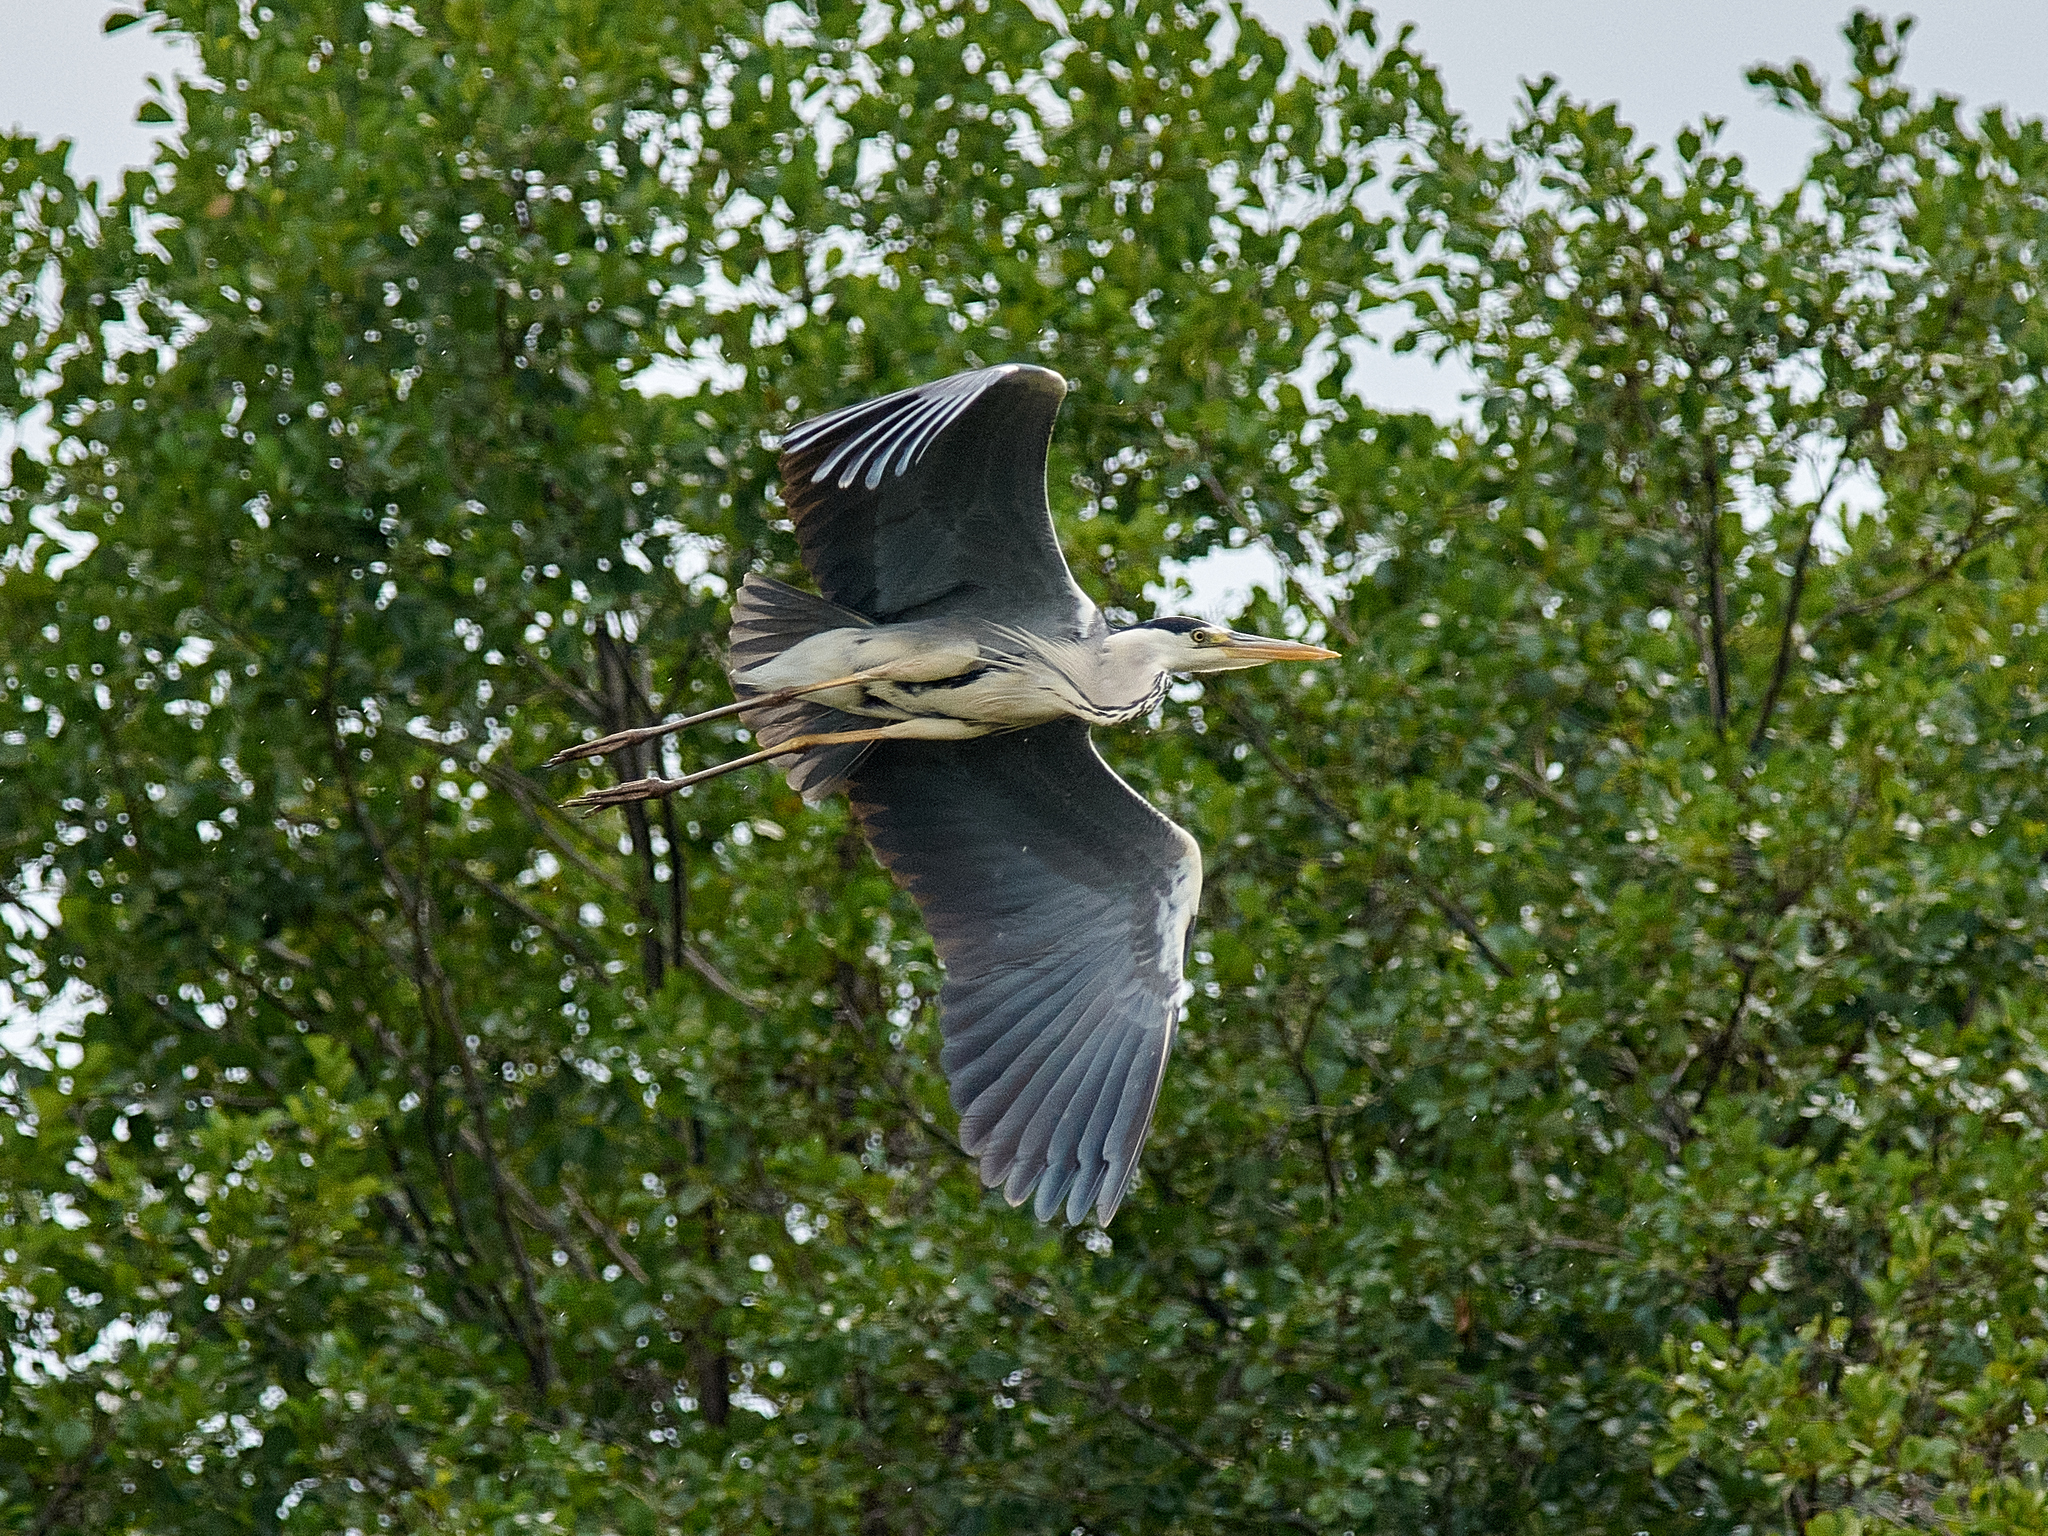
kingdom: Animalia
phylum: Chordata
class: Aves
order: Pelecaniformes
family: Ardeidae
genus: Ardea
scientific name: Ardea cinerea
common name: Grey heron
